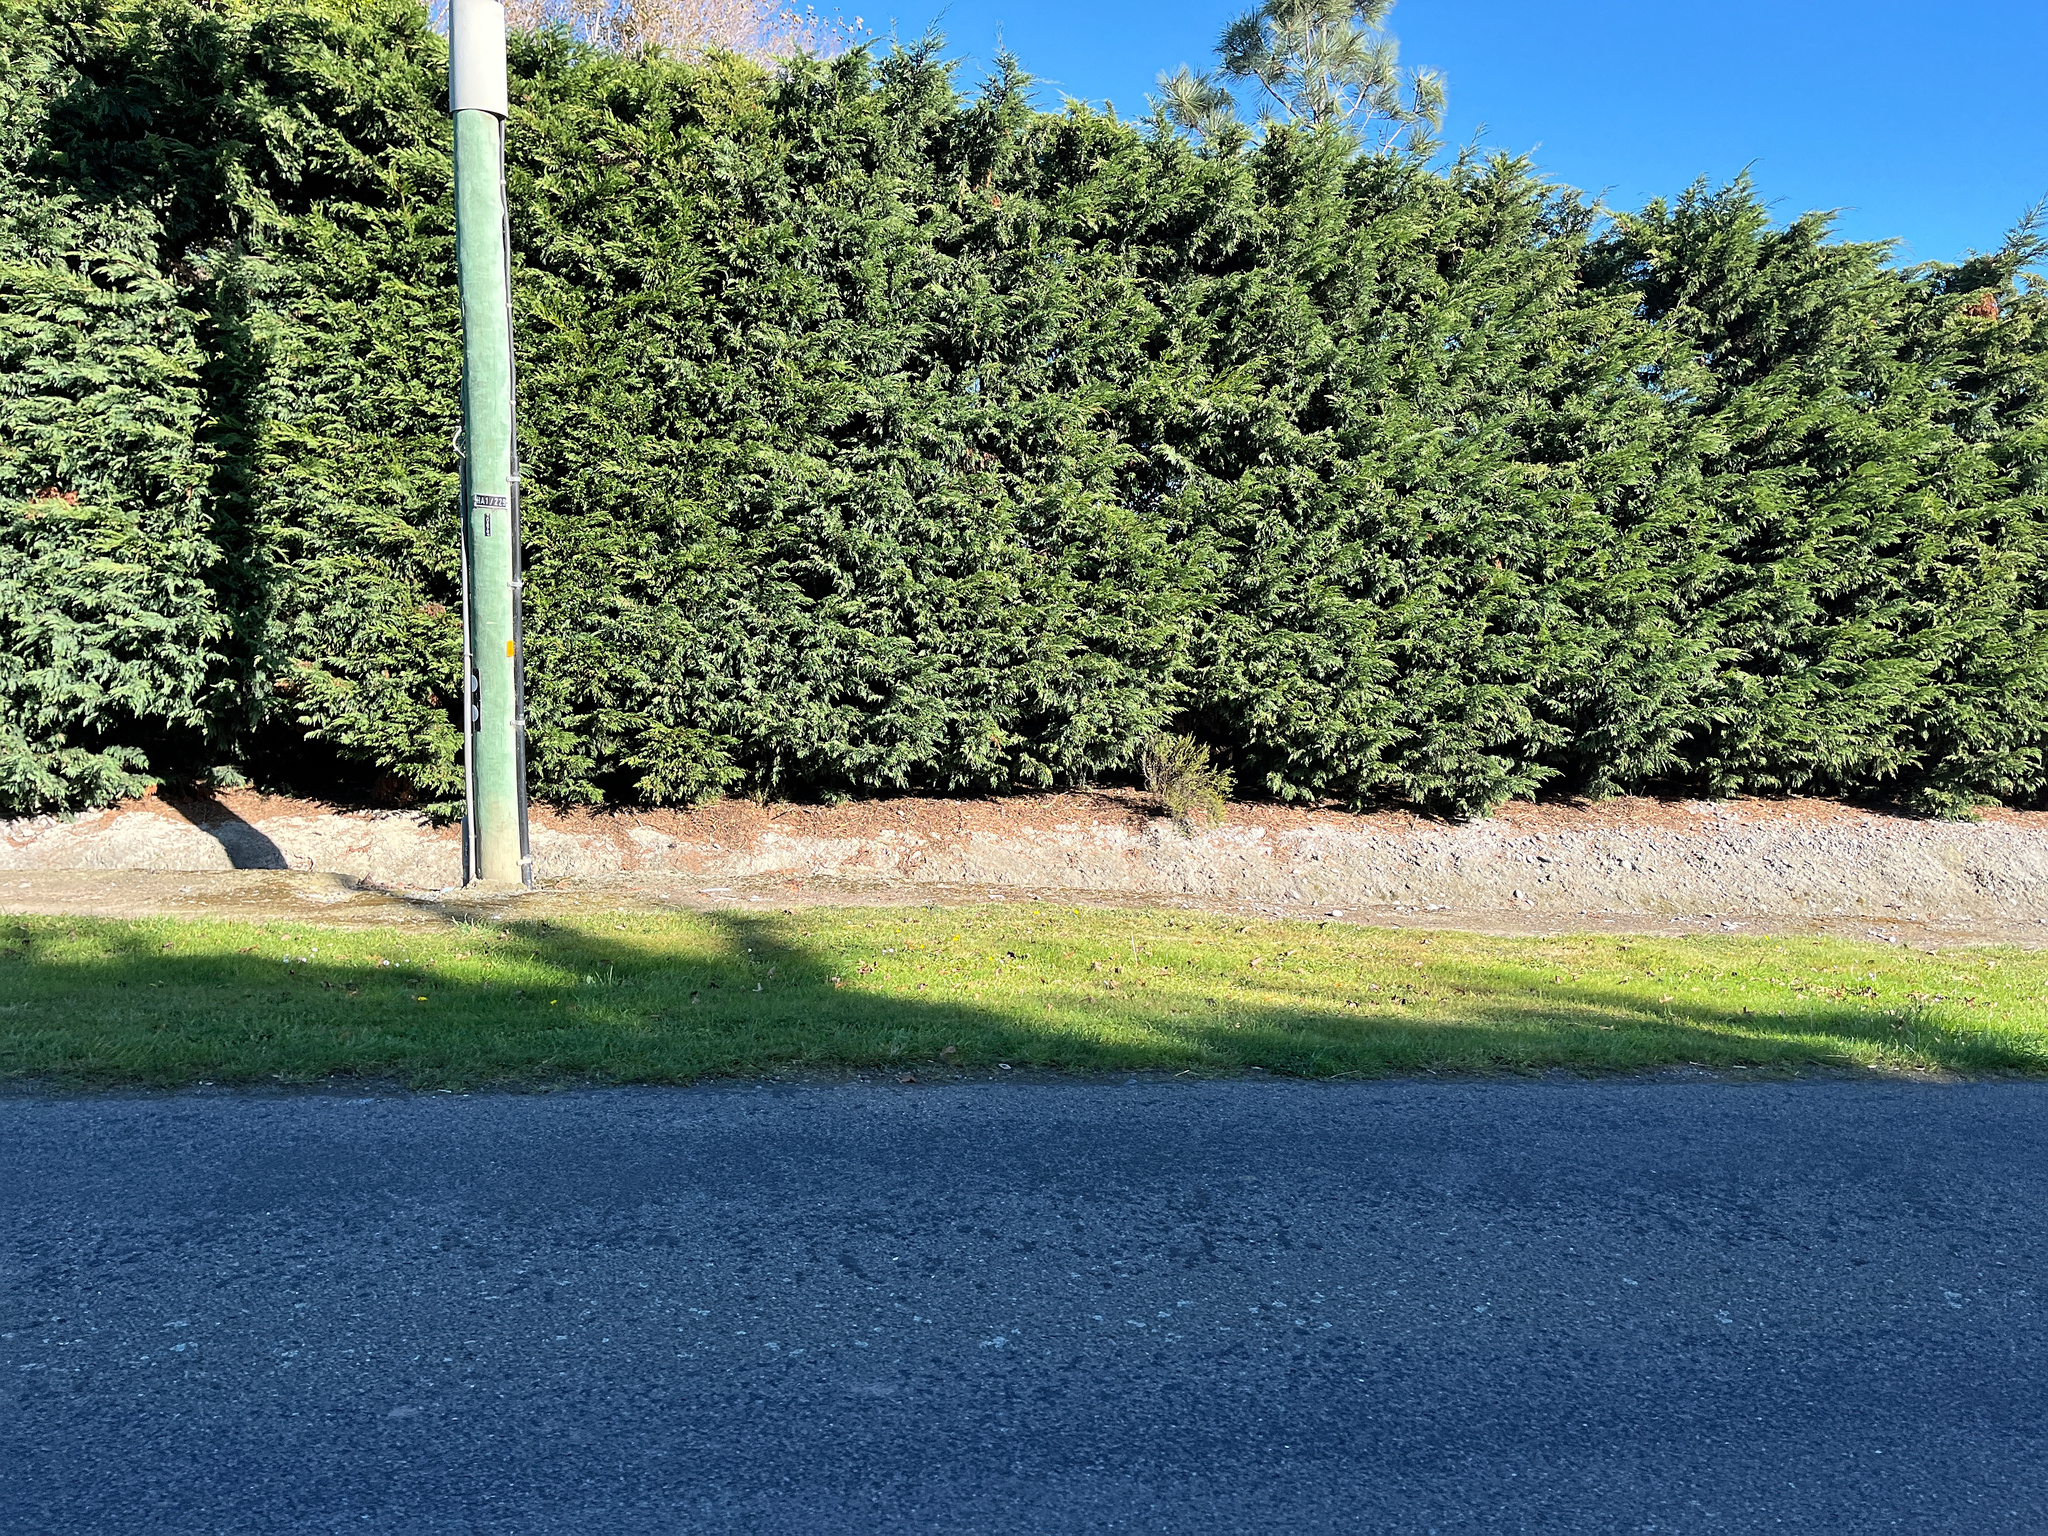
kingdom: Plantae
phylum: Tracheophyta
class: Magnoliopsida
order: Myrtales
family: Myrtaceae
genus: Kunzea
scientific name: Kunzea robusta
